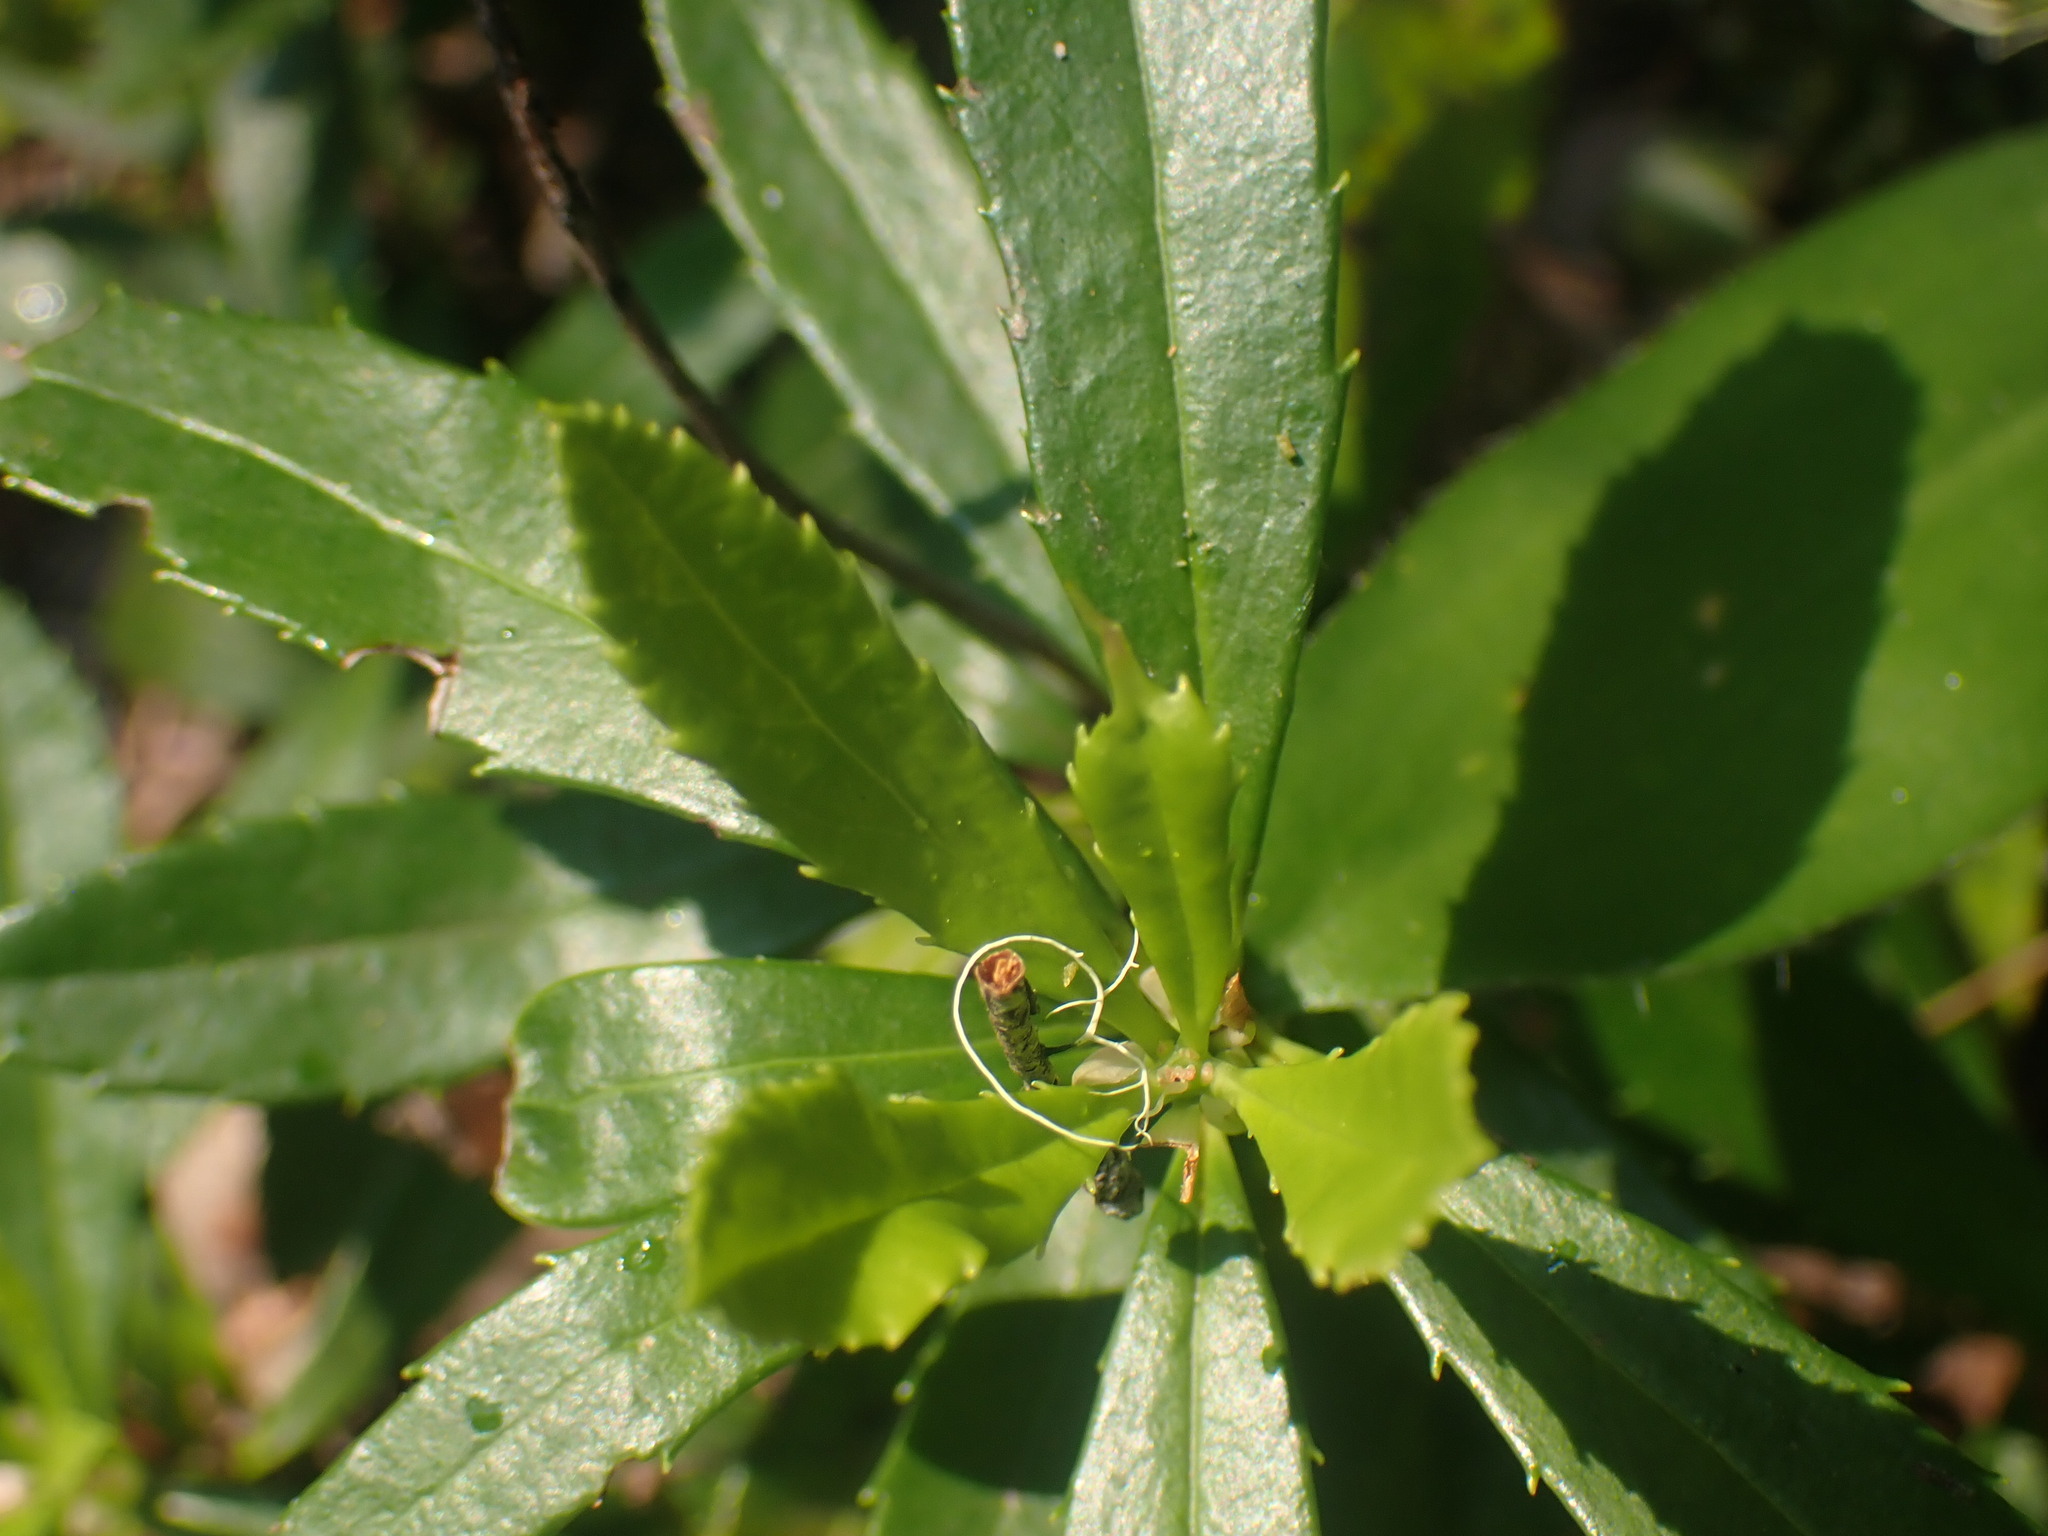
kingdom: Plantae
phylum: Tracheophyta
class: Magnoliopsida
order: Ericales
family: Ericaceae
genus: Chimaphila
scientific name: Chimaphila umbellata
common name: Pipsissewa
